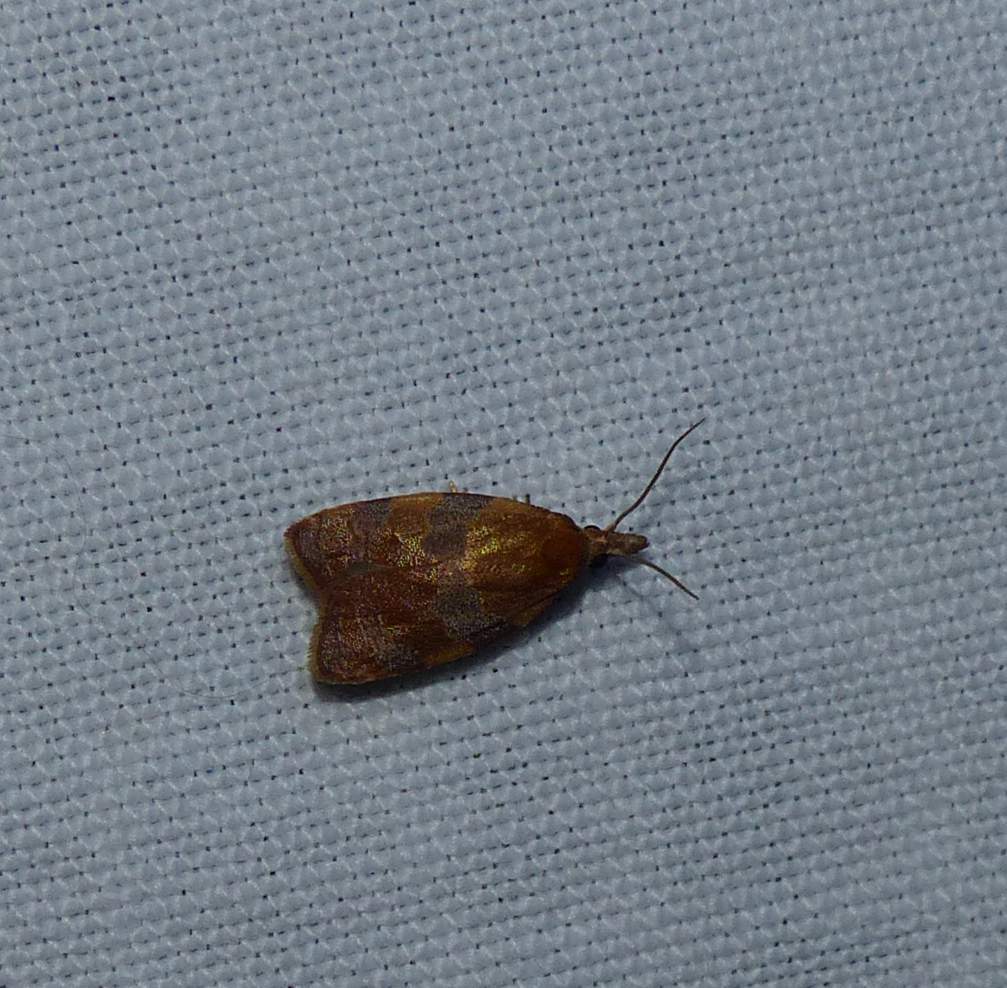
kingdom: Animalia
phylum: Arthropoda
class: Insecta
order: Lepidoptera
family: Tortricidae
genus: Cenopis
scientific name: Cenopis diluticostana
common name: Spring dead-leaf roller moth
